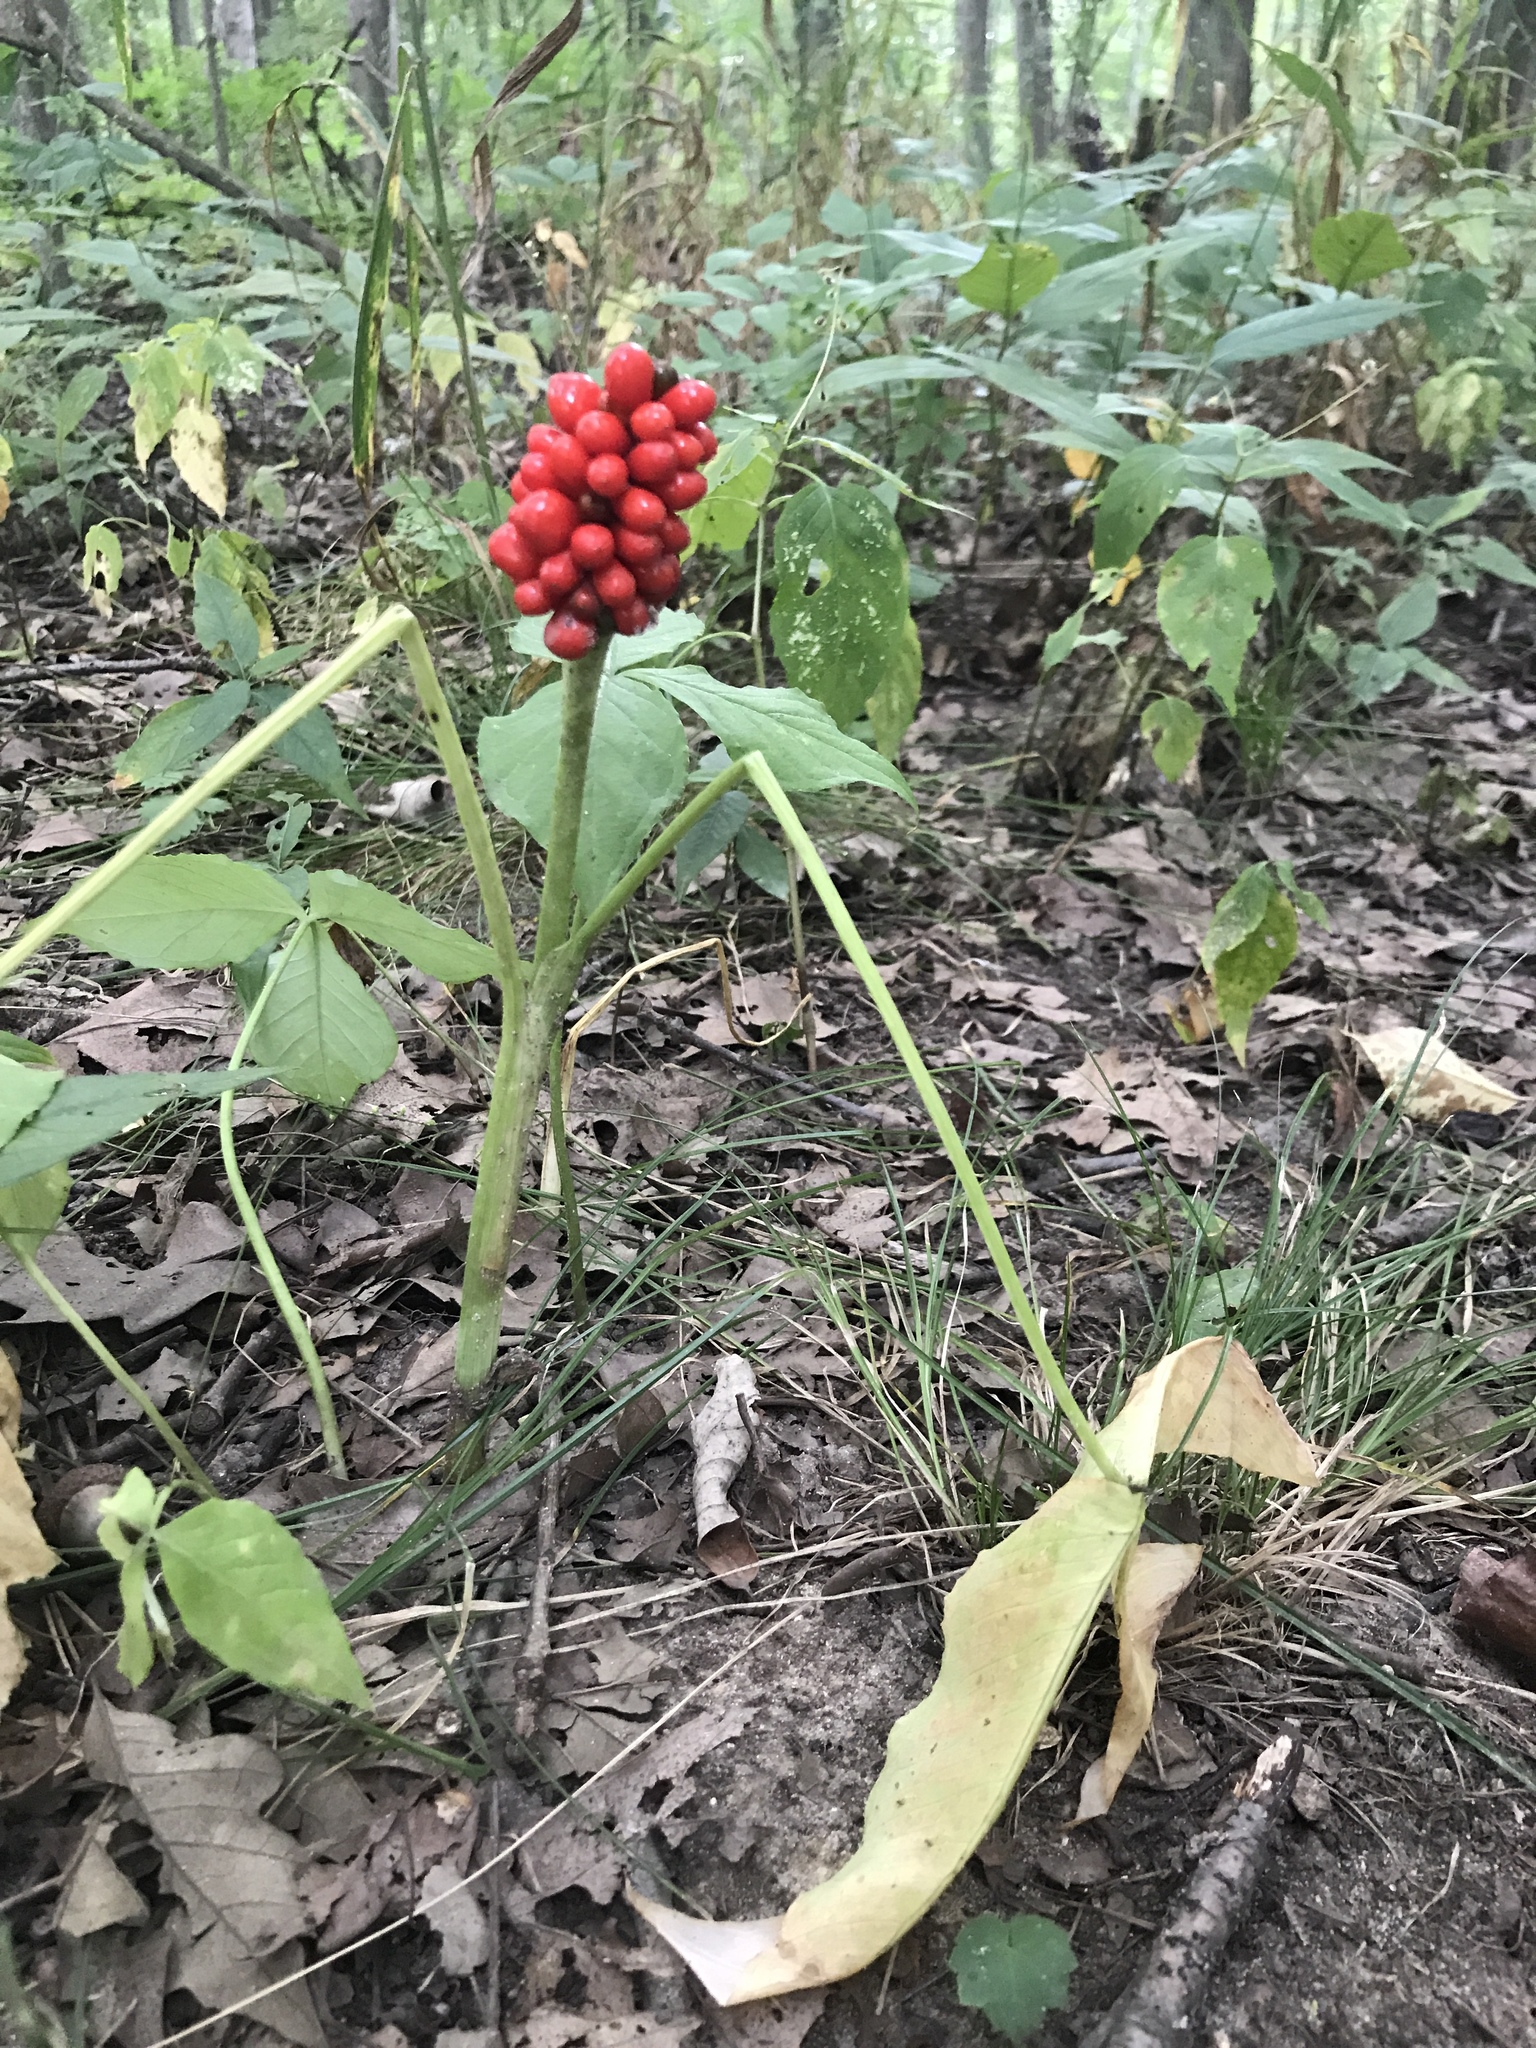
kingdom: Plantae
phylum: Tracheophyta
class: Liliopsida
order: Alismatales
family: Araceae
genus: Arisaema
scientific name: Arisaema triphyllum
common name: Jack-in-the-pulpit
